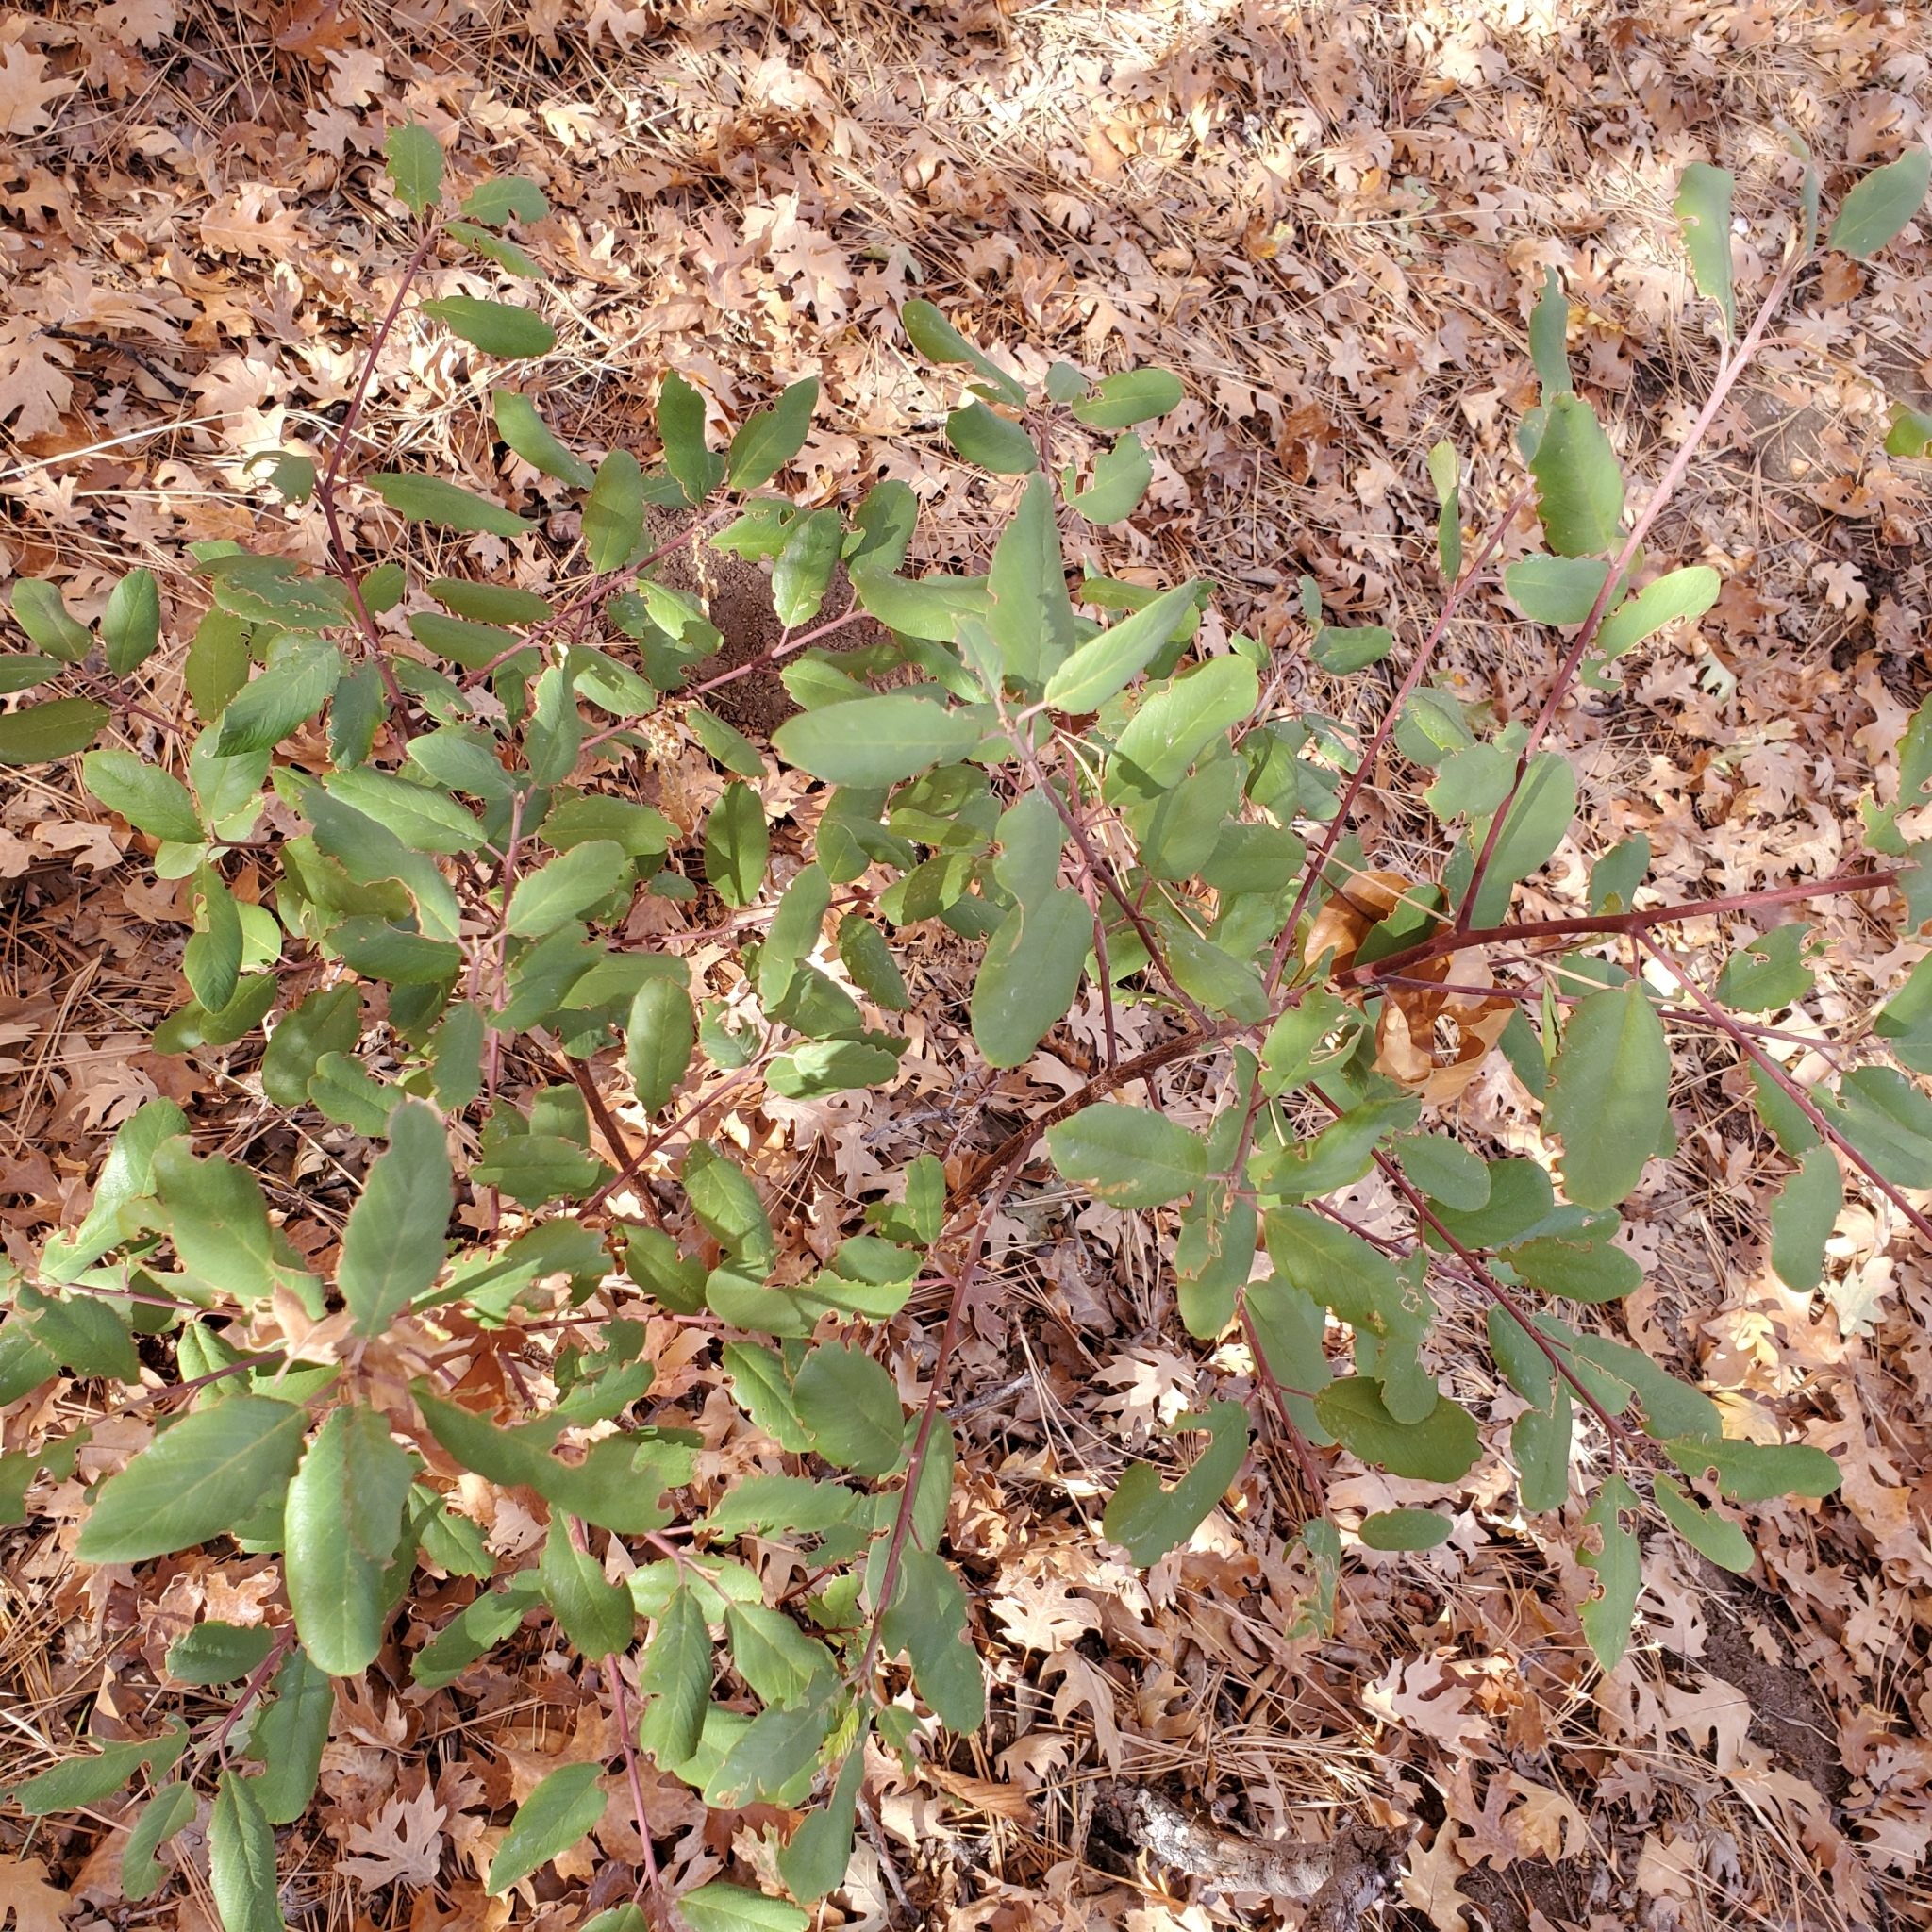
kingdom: Plantae
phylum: Tracheophyta
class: Magnoliopsida
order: Rosales
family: Rhamnaceae
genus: Frangula
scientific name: Frangula californica
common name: California buckthorn
